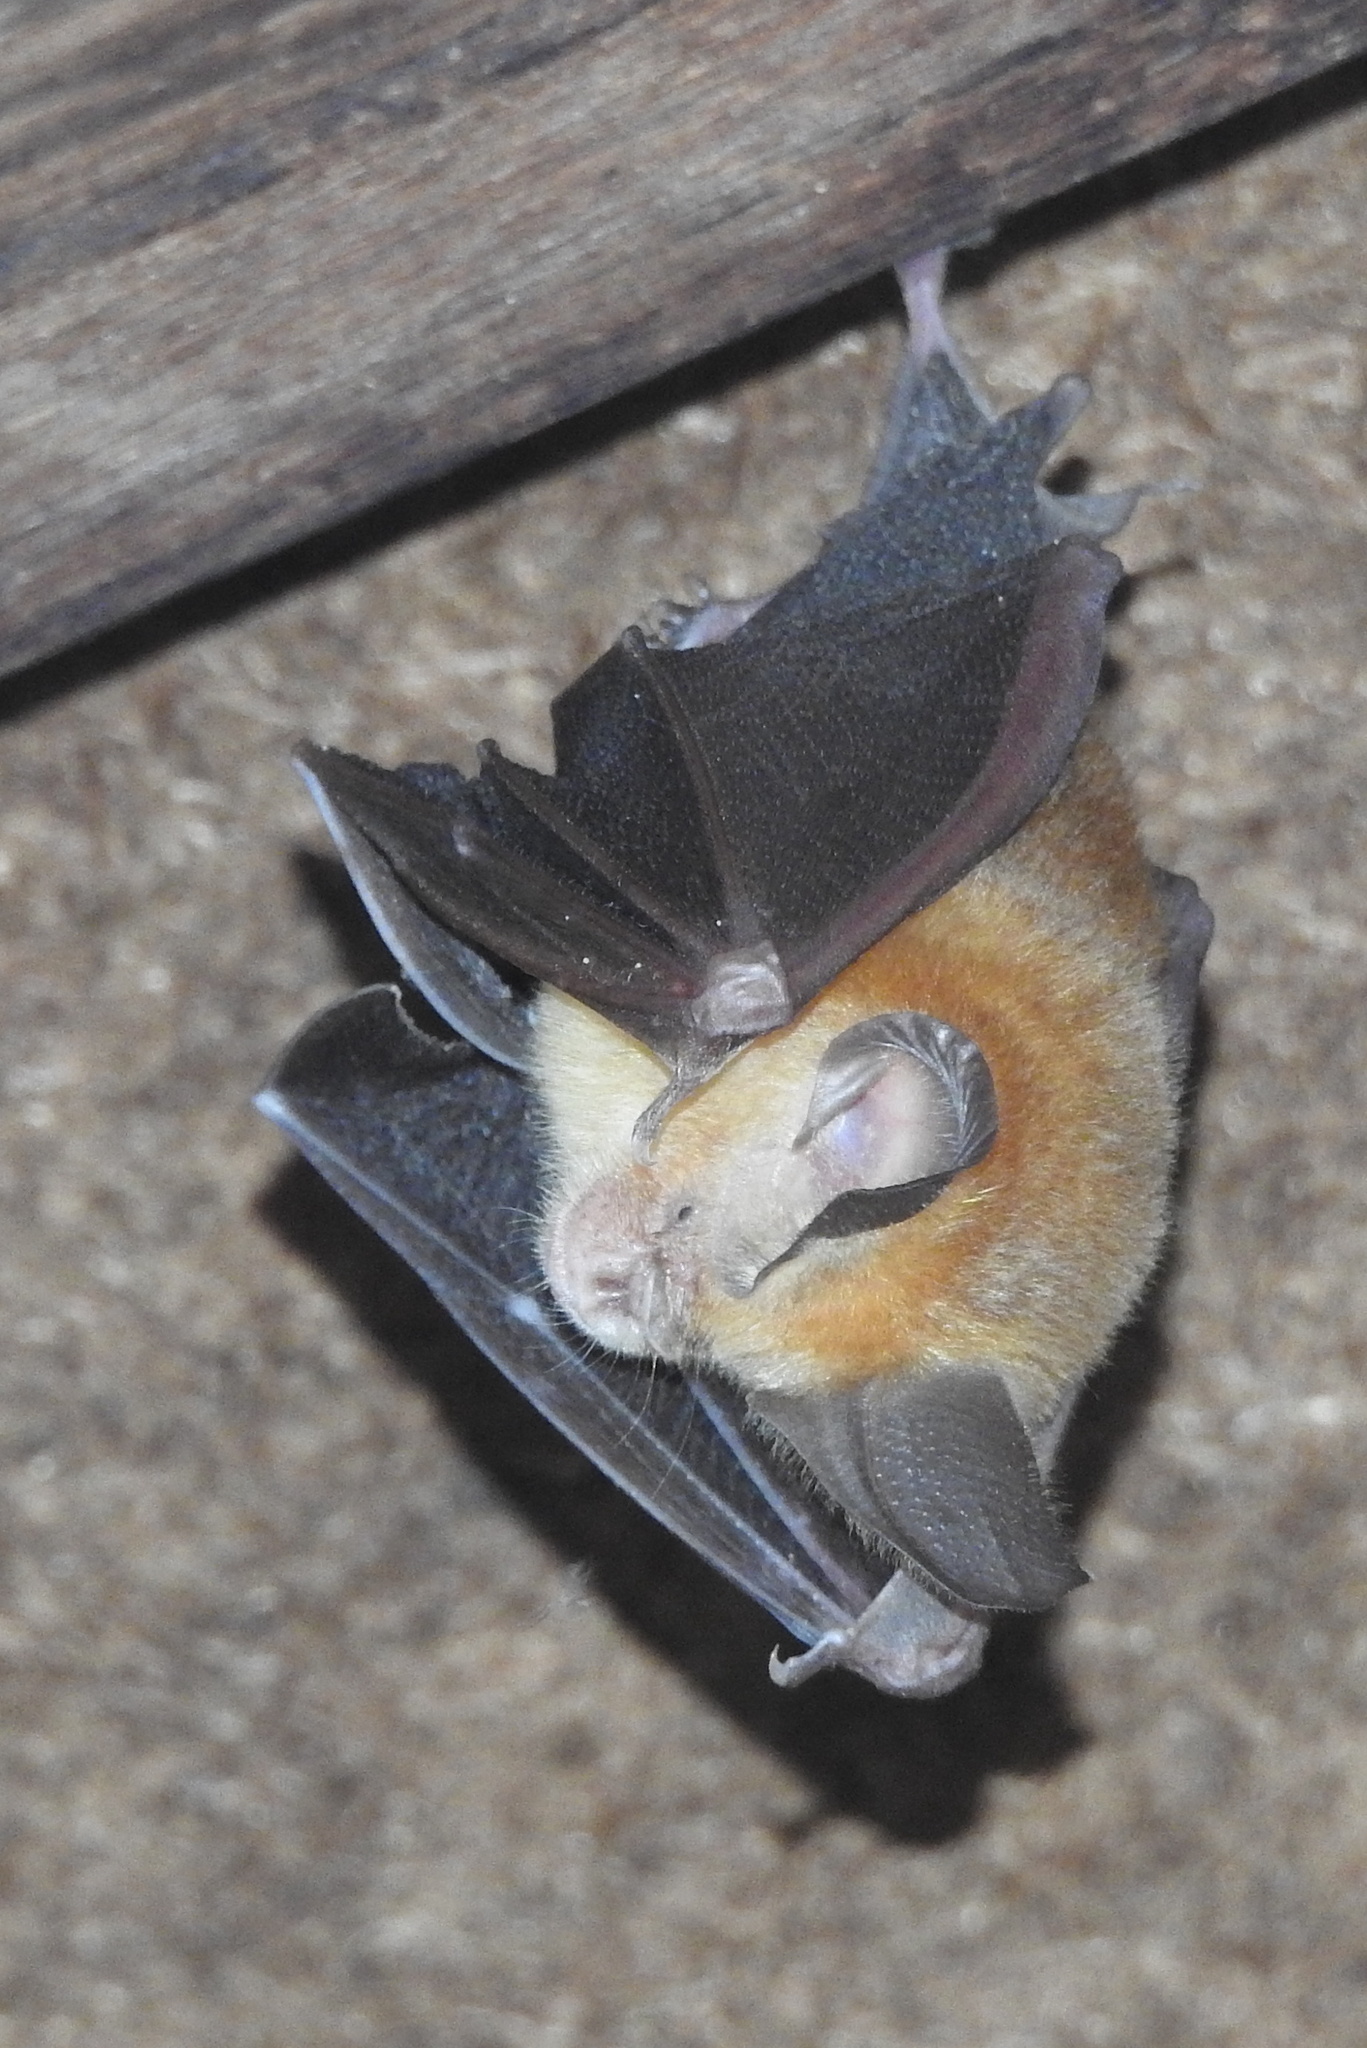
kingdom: Animalia
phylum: Chordata
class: Mammalia
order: Chiroptera
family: Hipposideridae
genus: Hipposideros
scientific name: Hipposideros fulvus
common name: Fulvus leaf-nosed bat
